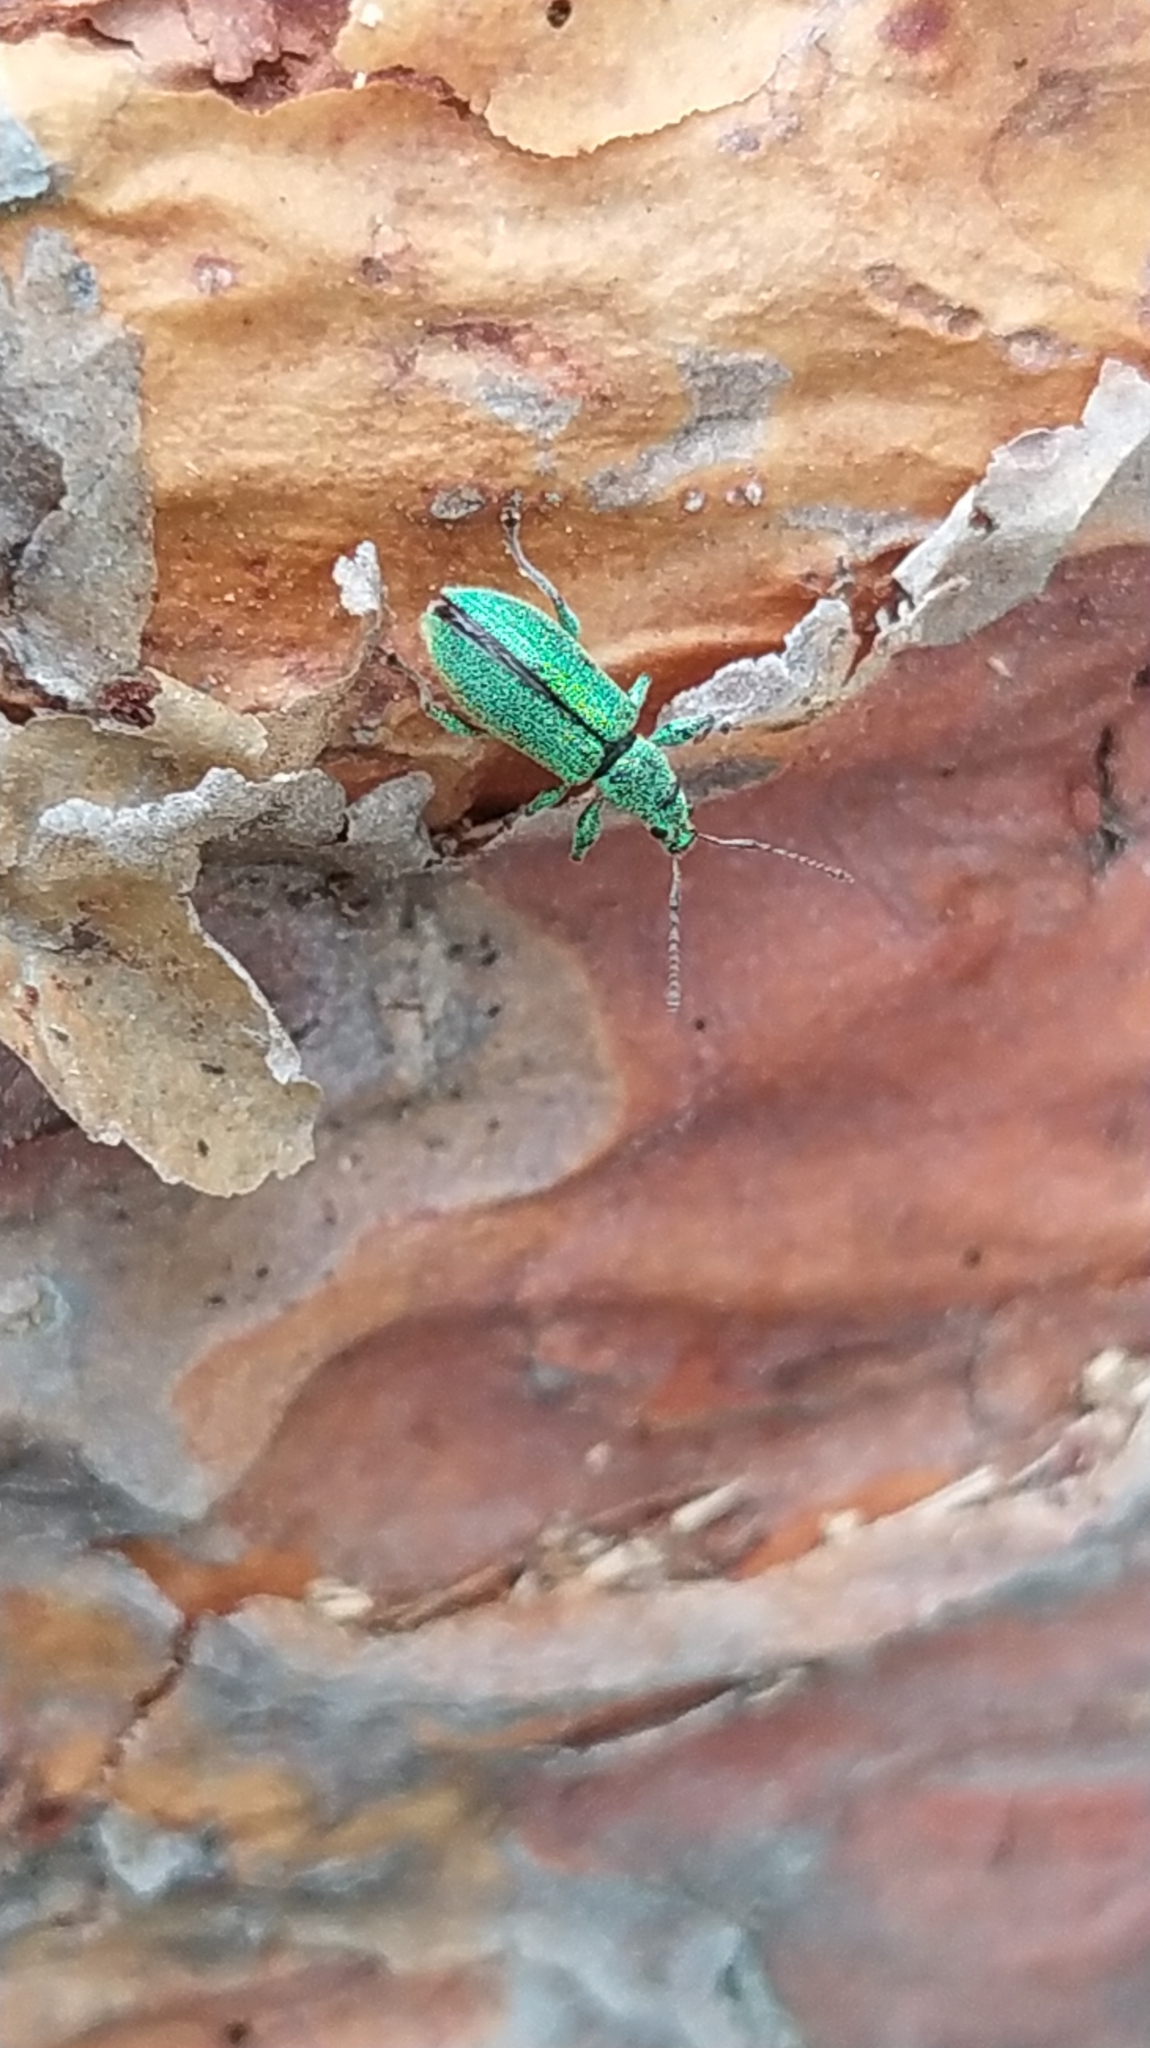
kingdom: Animalia
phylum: Arthropoda
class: Insecta
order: Coleoptera
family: Curculionidae
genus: Phyllobius
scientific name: Phyllobius arborator
